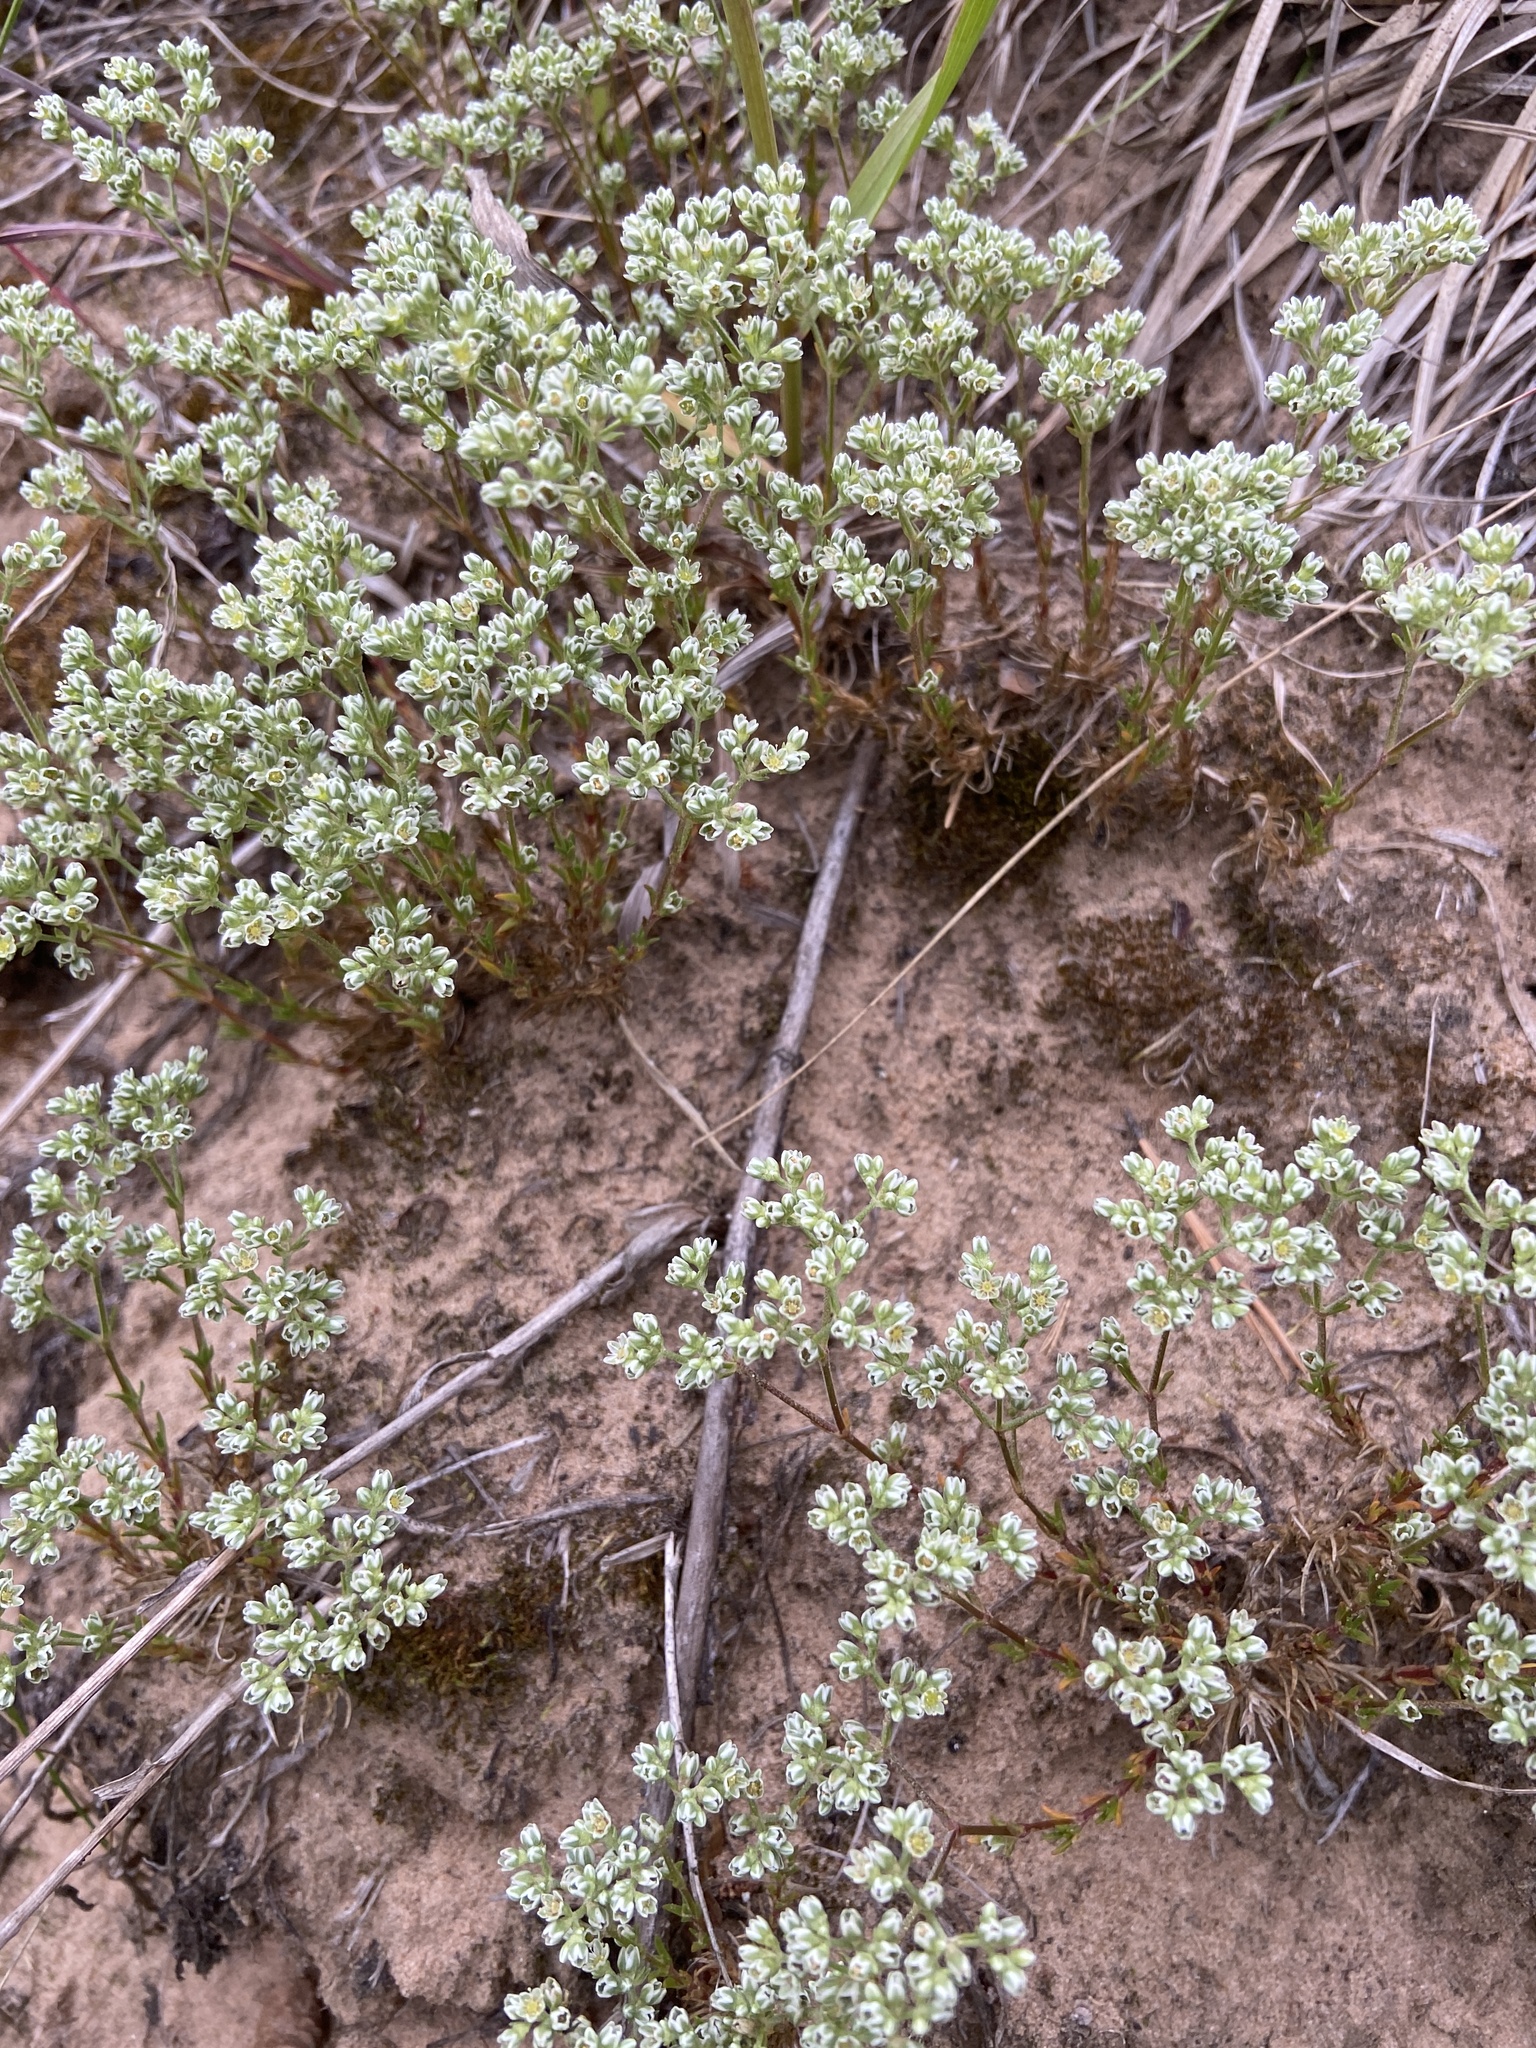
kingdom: Plantae
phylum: Tracheophyta
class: Magnoliopsida
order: Caryophyllales
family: Caryophyllaceae
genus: Scleranthus
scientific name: Scleranthus perennis
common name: Perennial knawel
